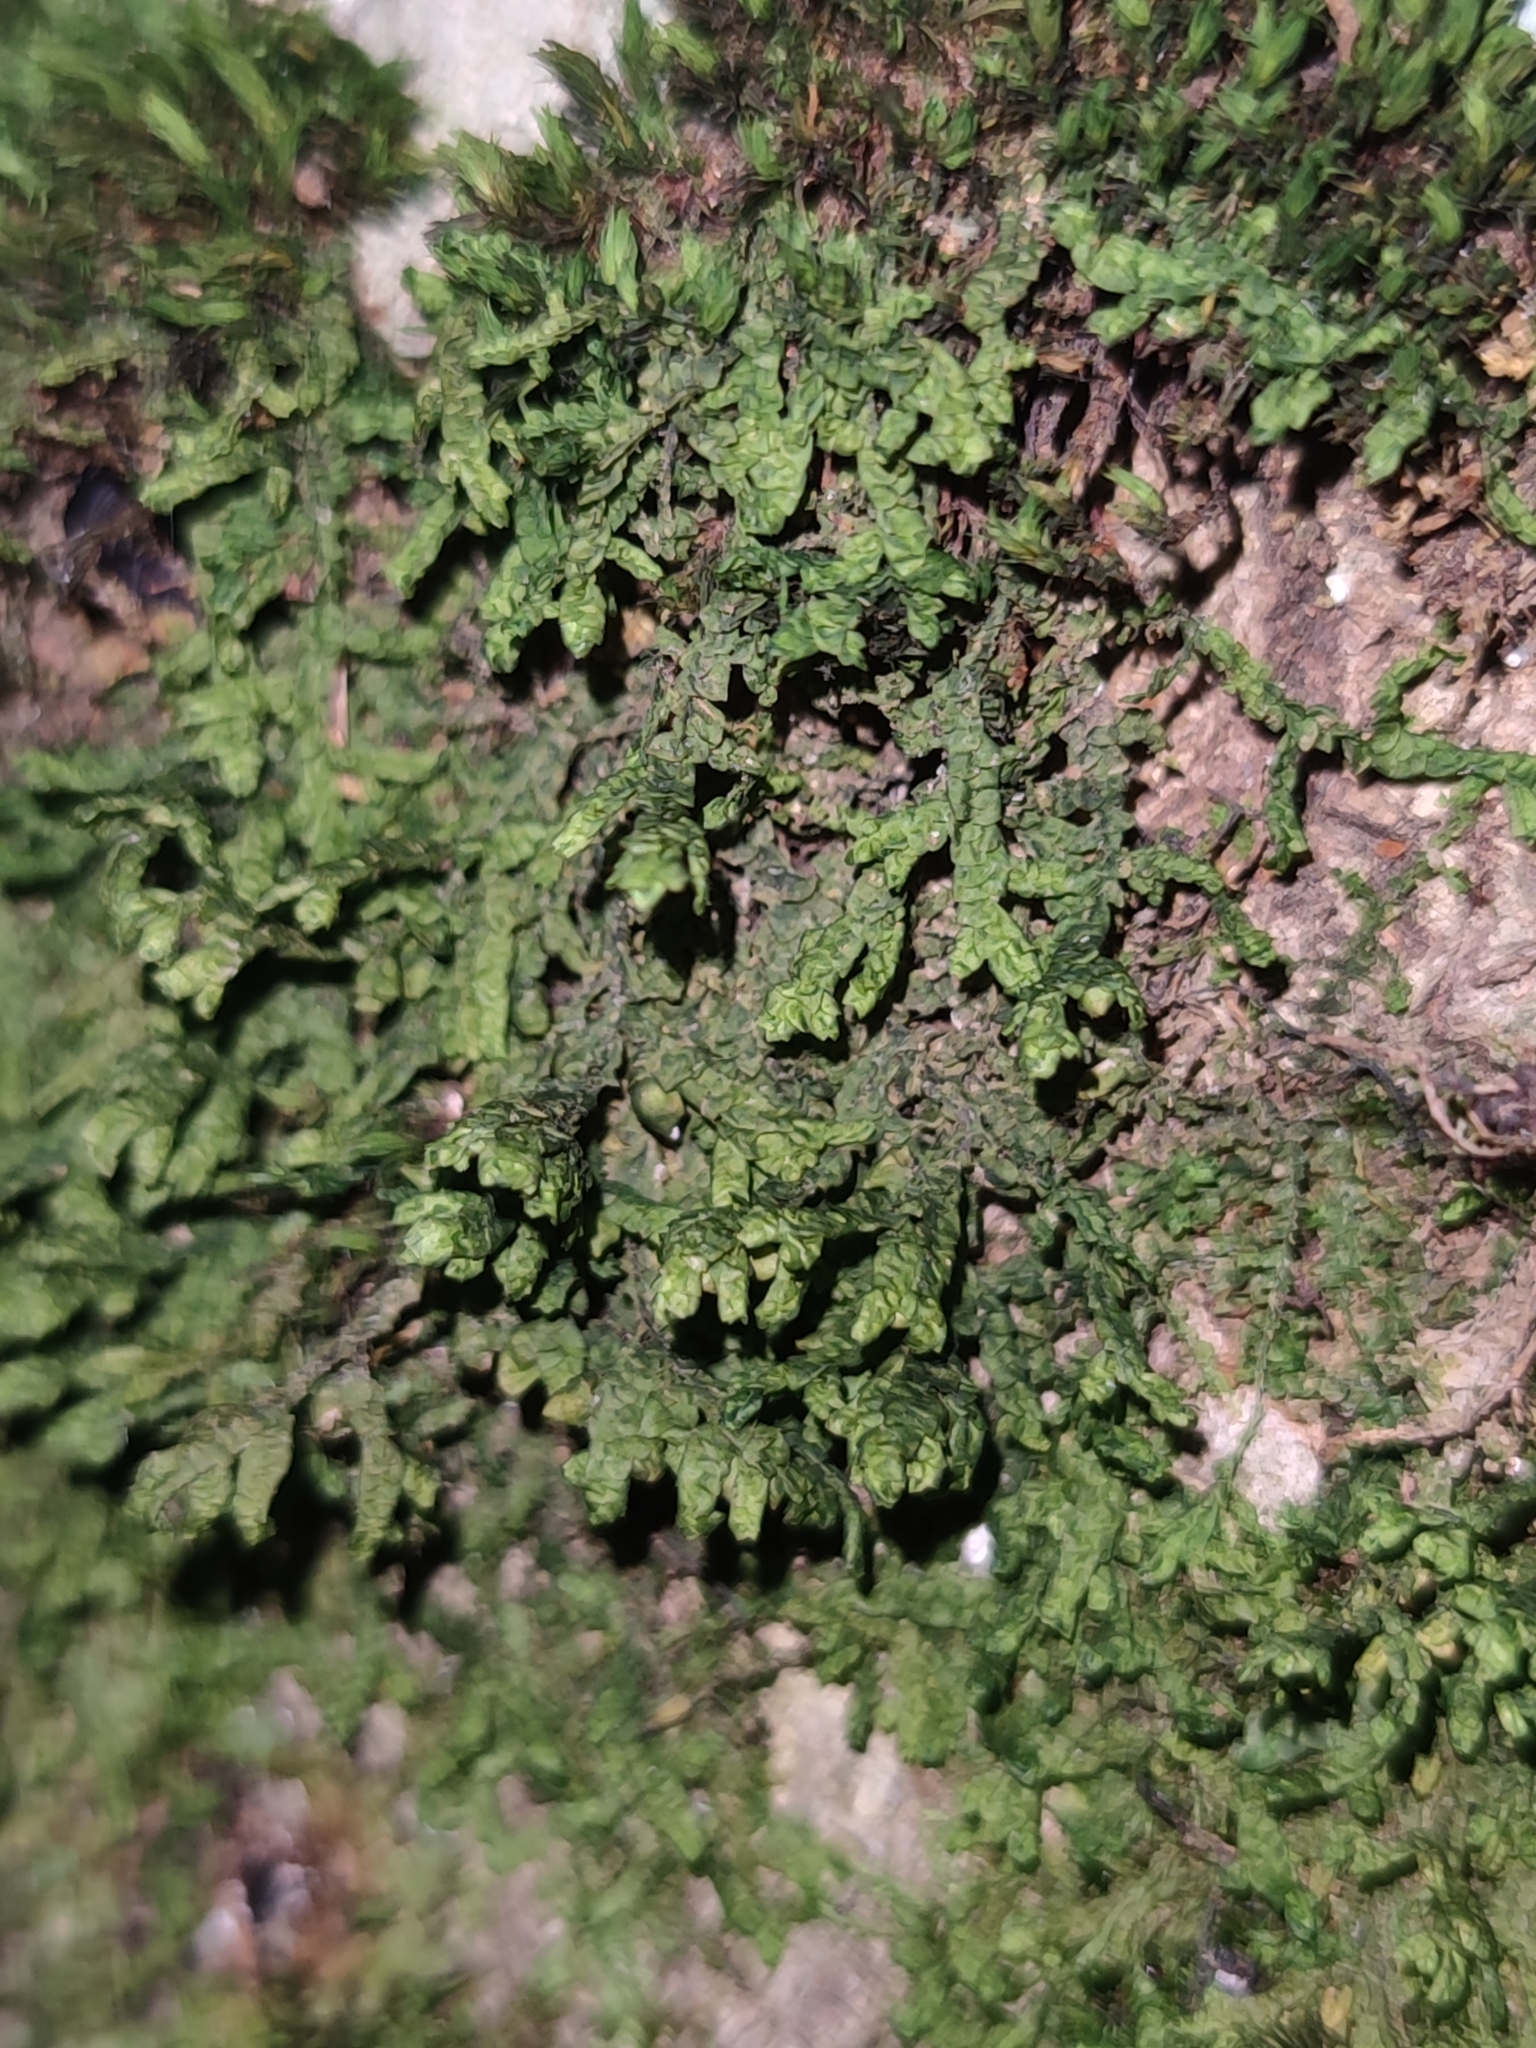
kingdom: Plantae
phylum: Marchantiophyta
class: Jungermanniopsida
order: Porellales
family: Porellaceae
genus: Porella
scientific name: Porella platyphylla
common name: Wall scalewort
